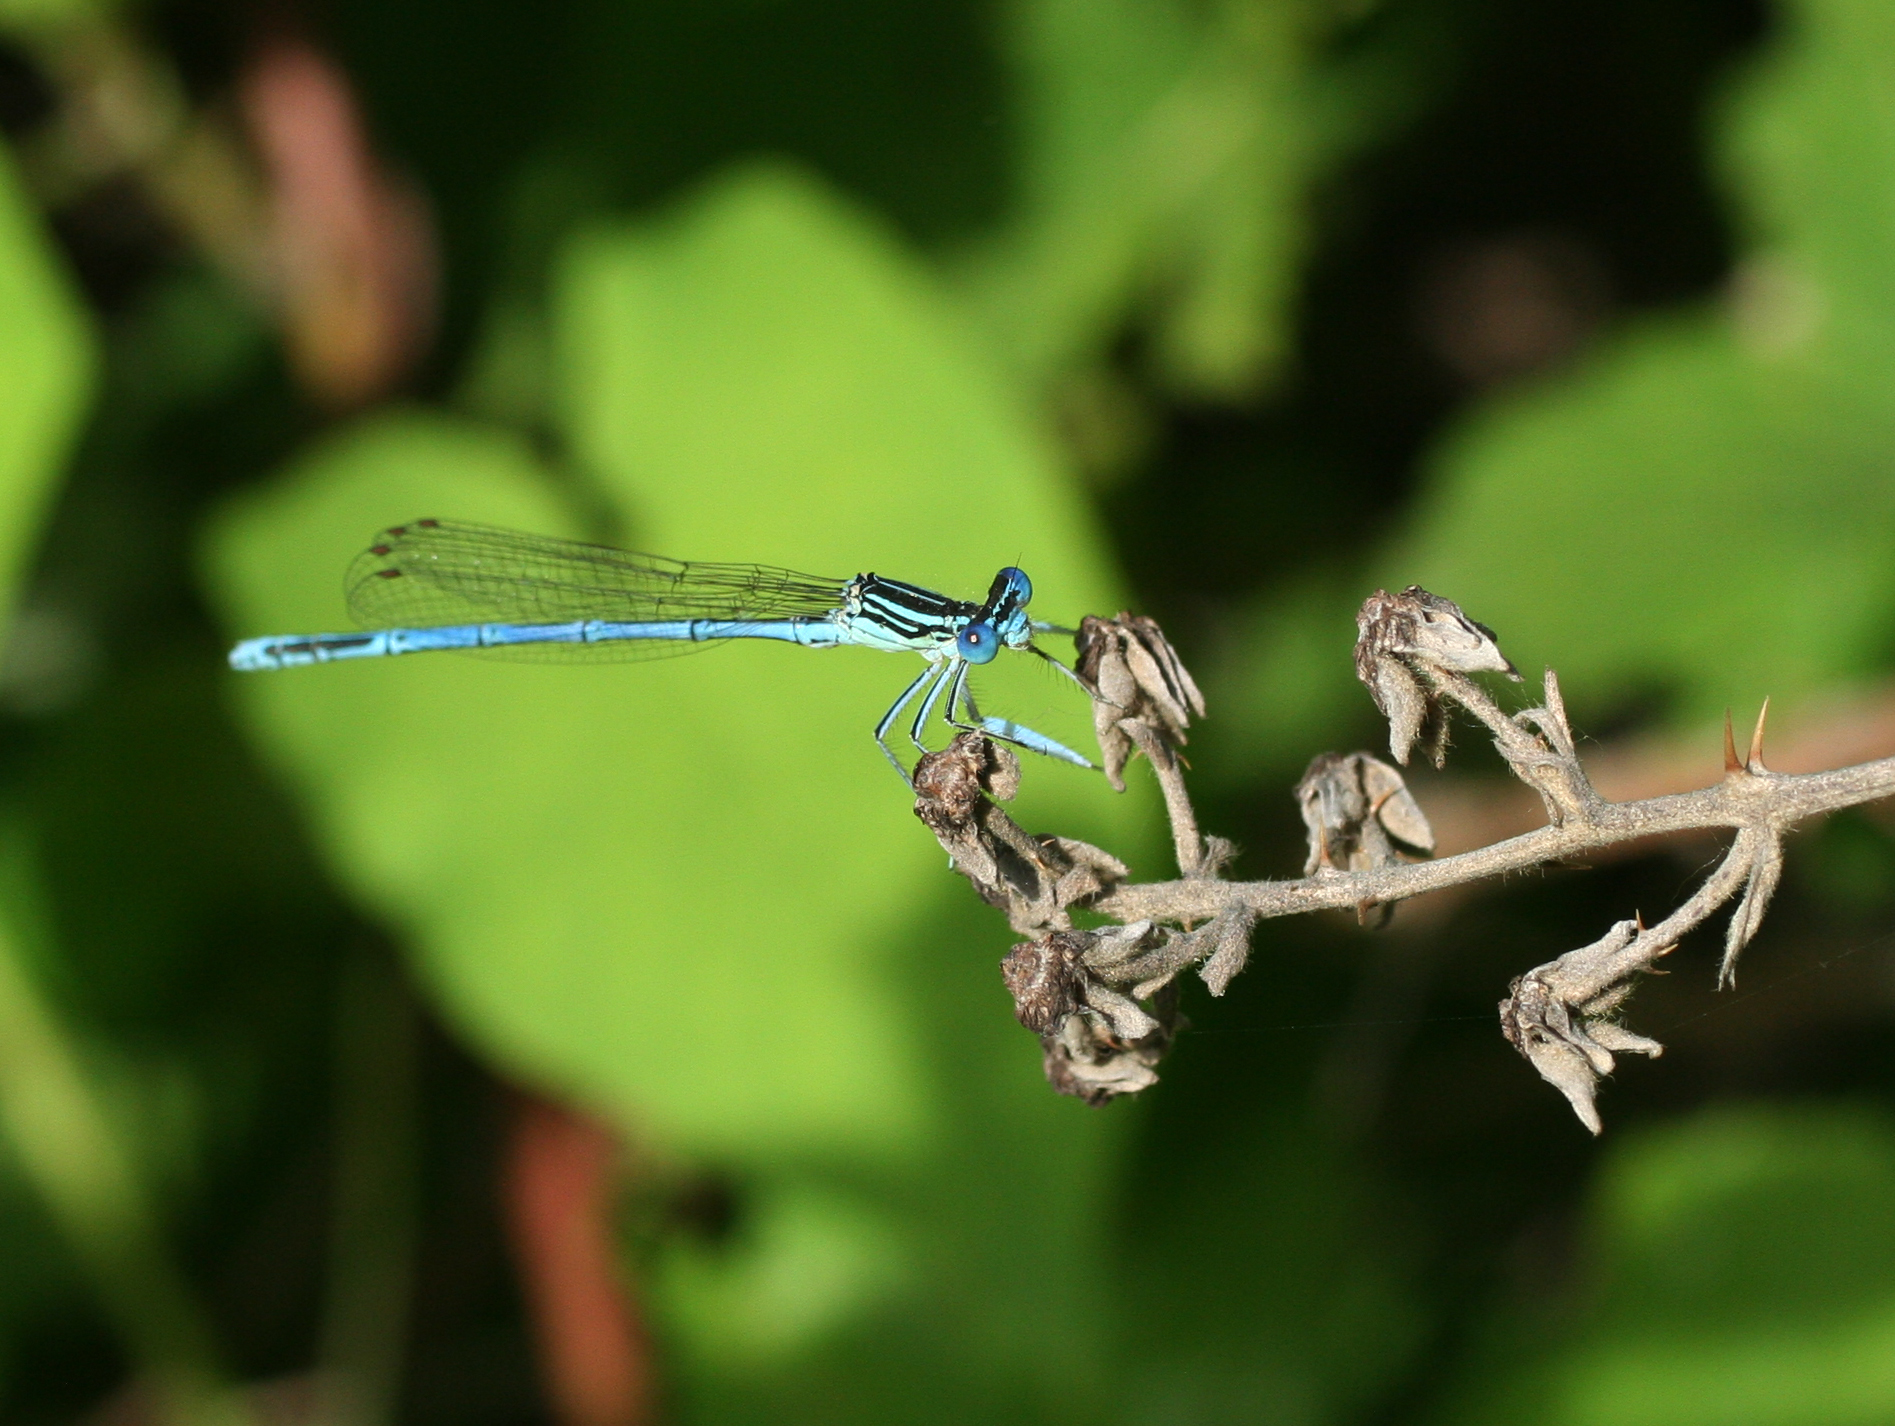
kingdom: Animalia
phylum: Arthropoda
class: Insecta
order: Odonata
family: Platycnemididae
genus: Platycnemis
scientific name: Platycnemis pennipes
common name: White-legged damselfly
